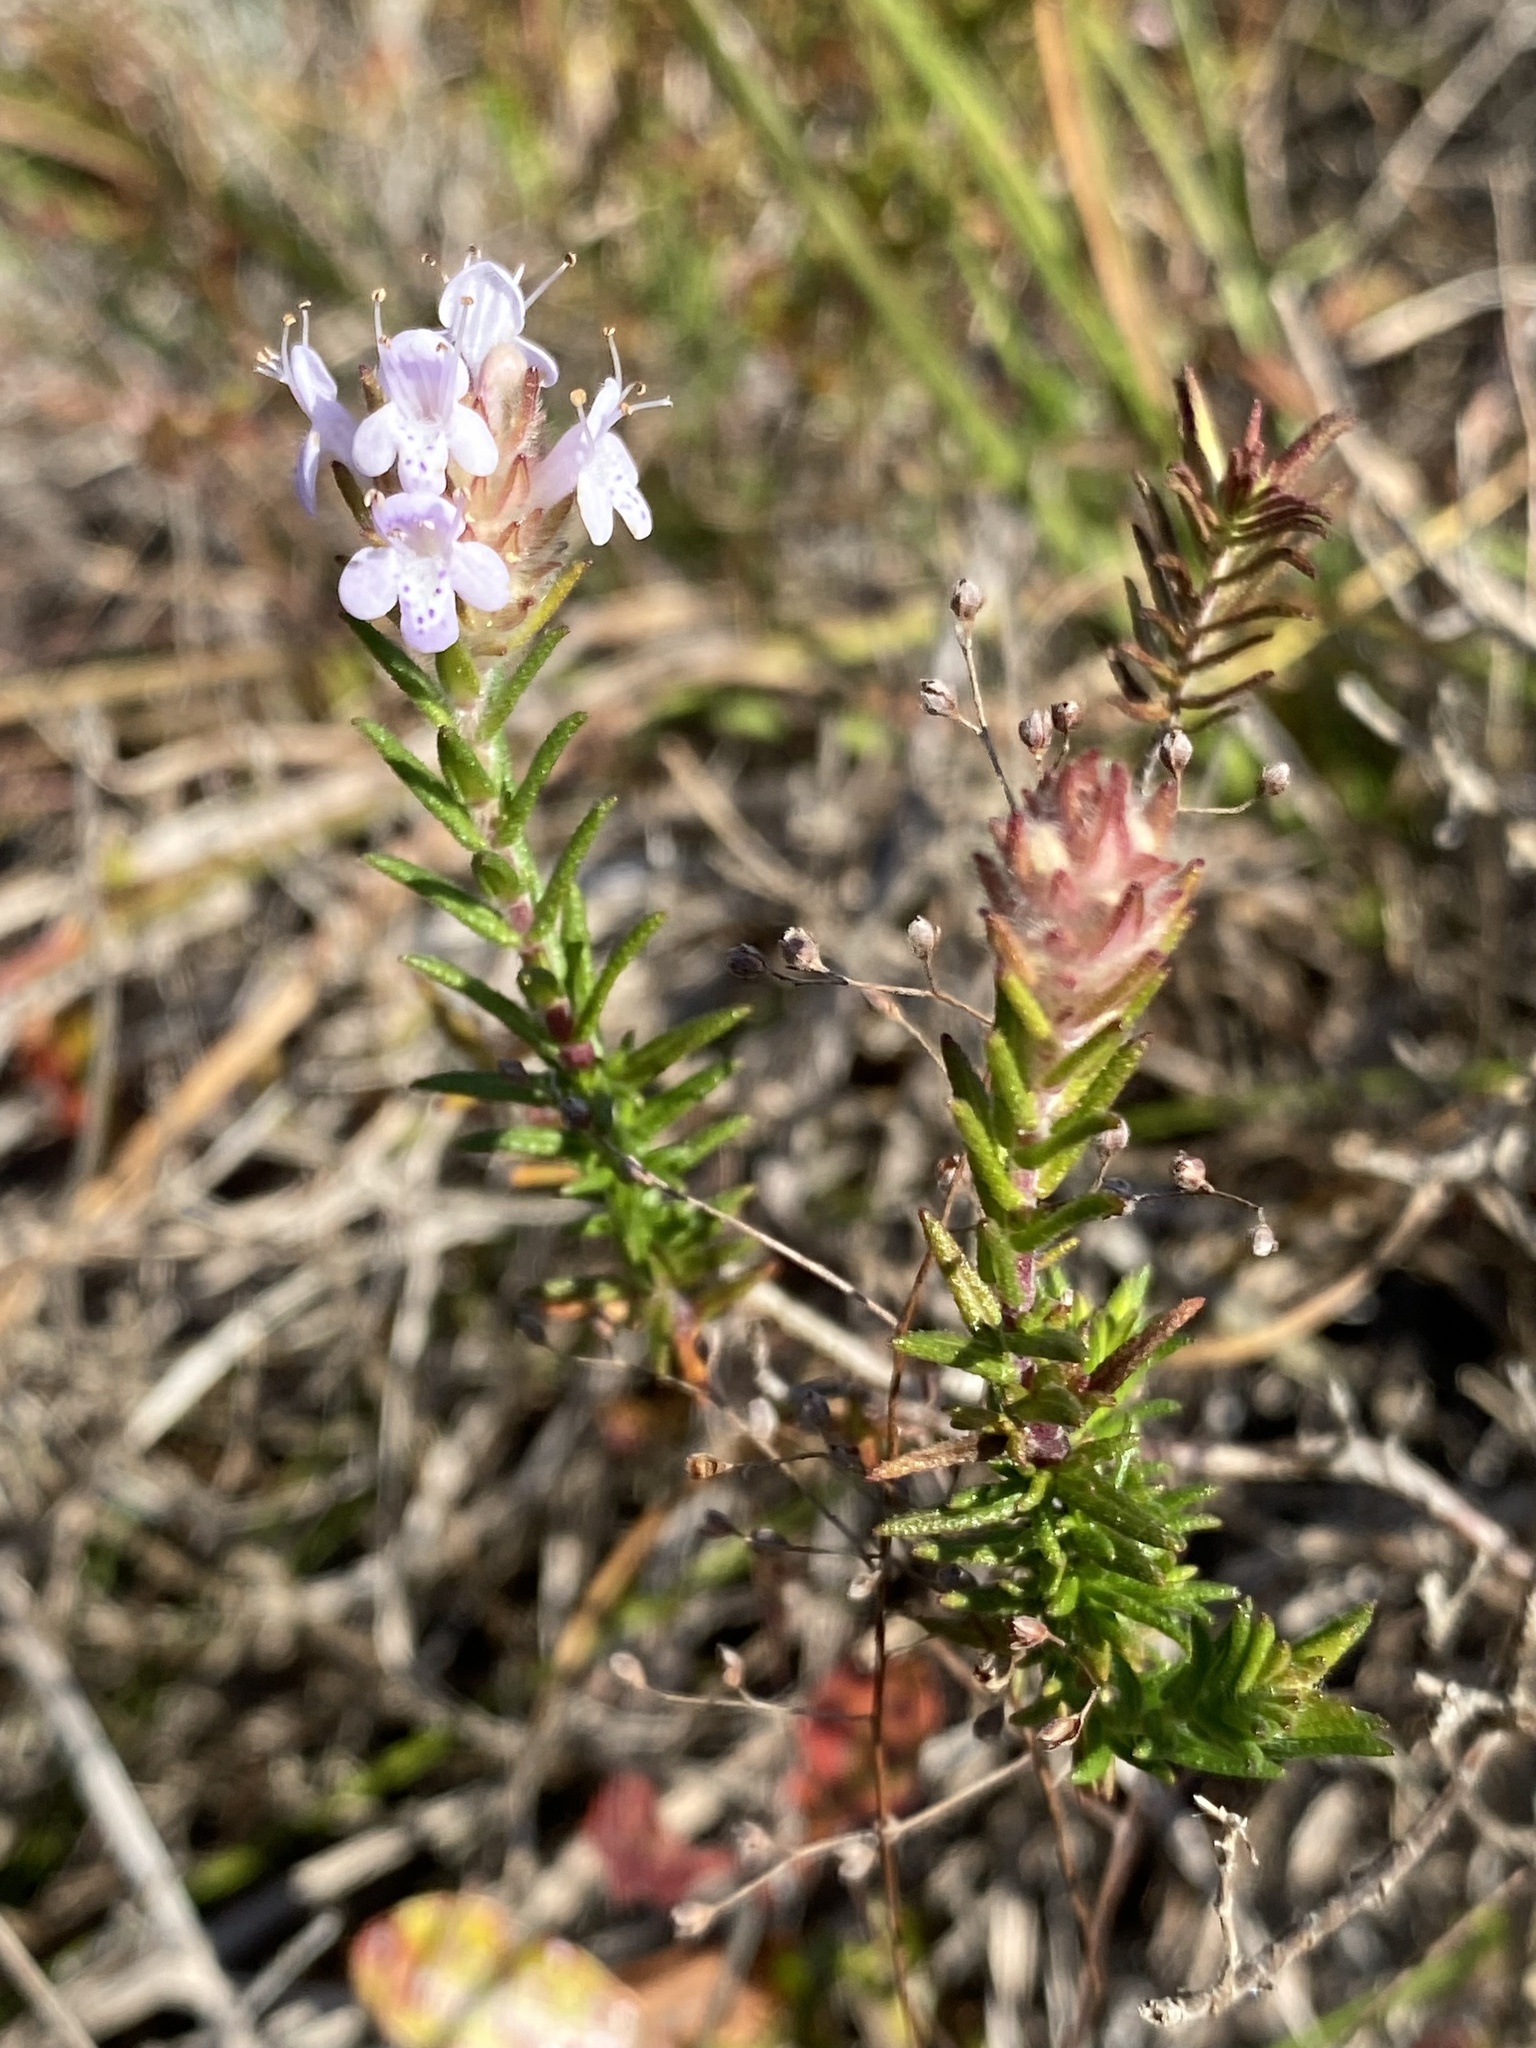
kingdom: Plantae
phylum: Tracheophyta
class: Magnoliopsida
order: Lamiales
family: Lamiaceae
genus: Piloblephis
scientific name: Piloblephis rigida
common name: Wild pennyroyal
